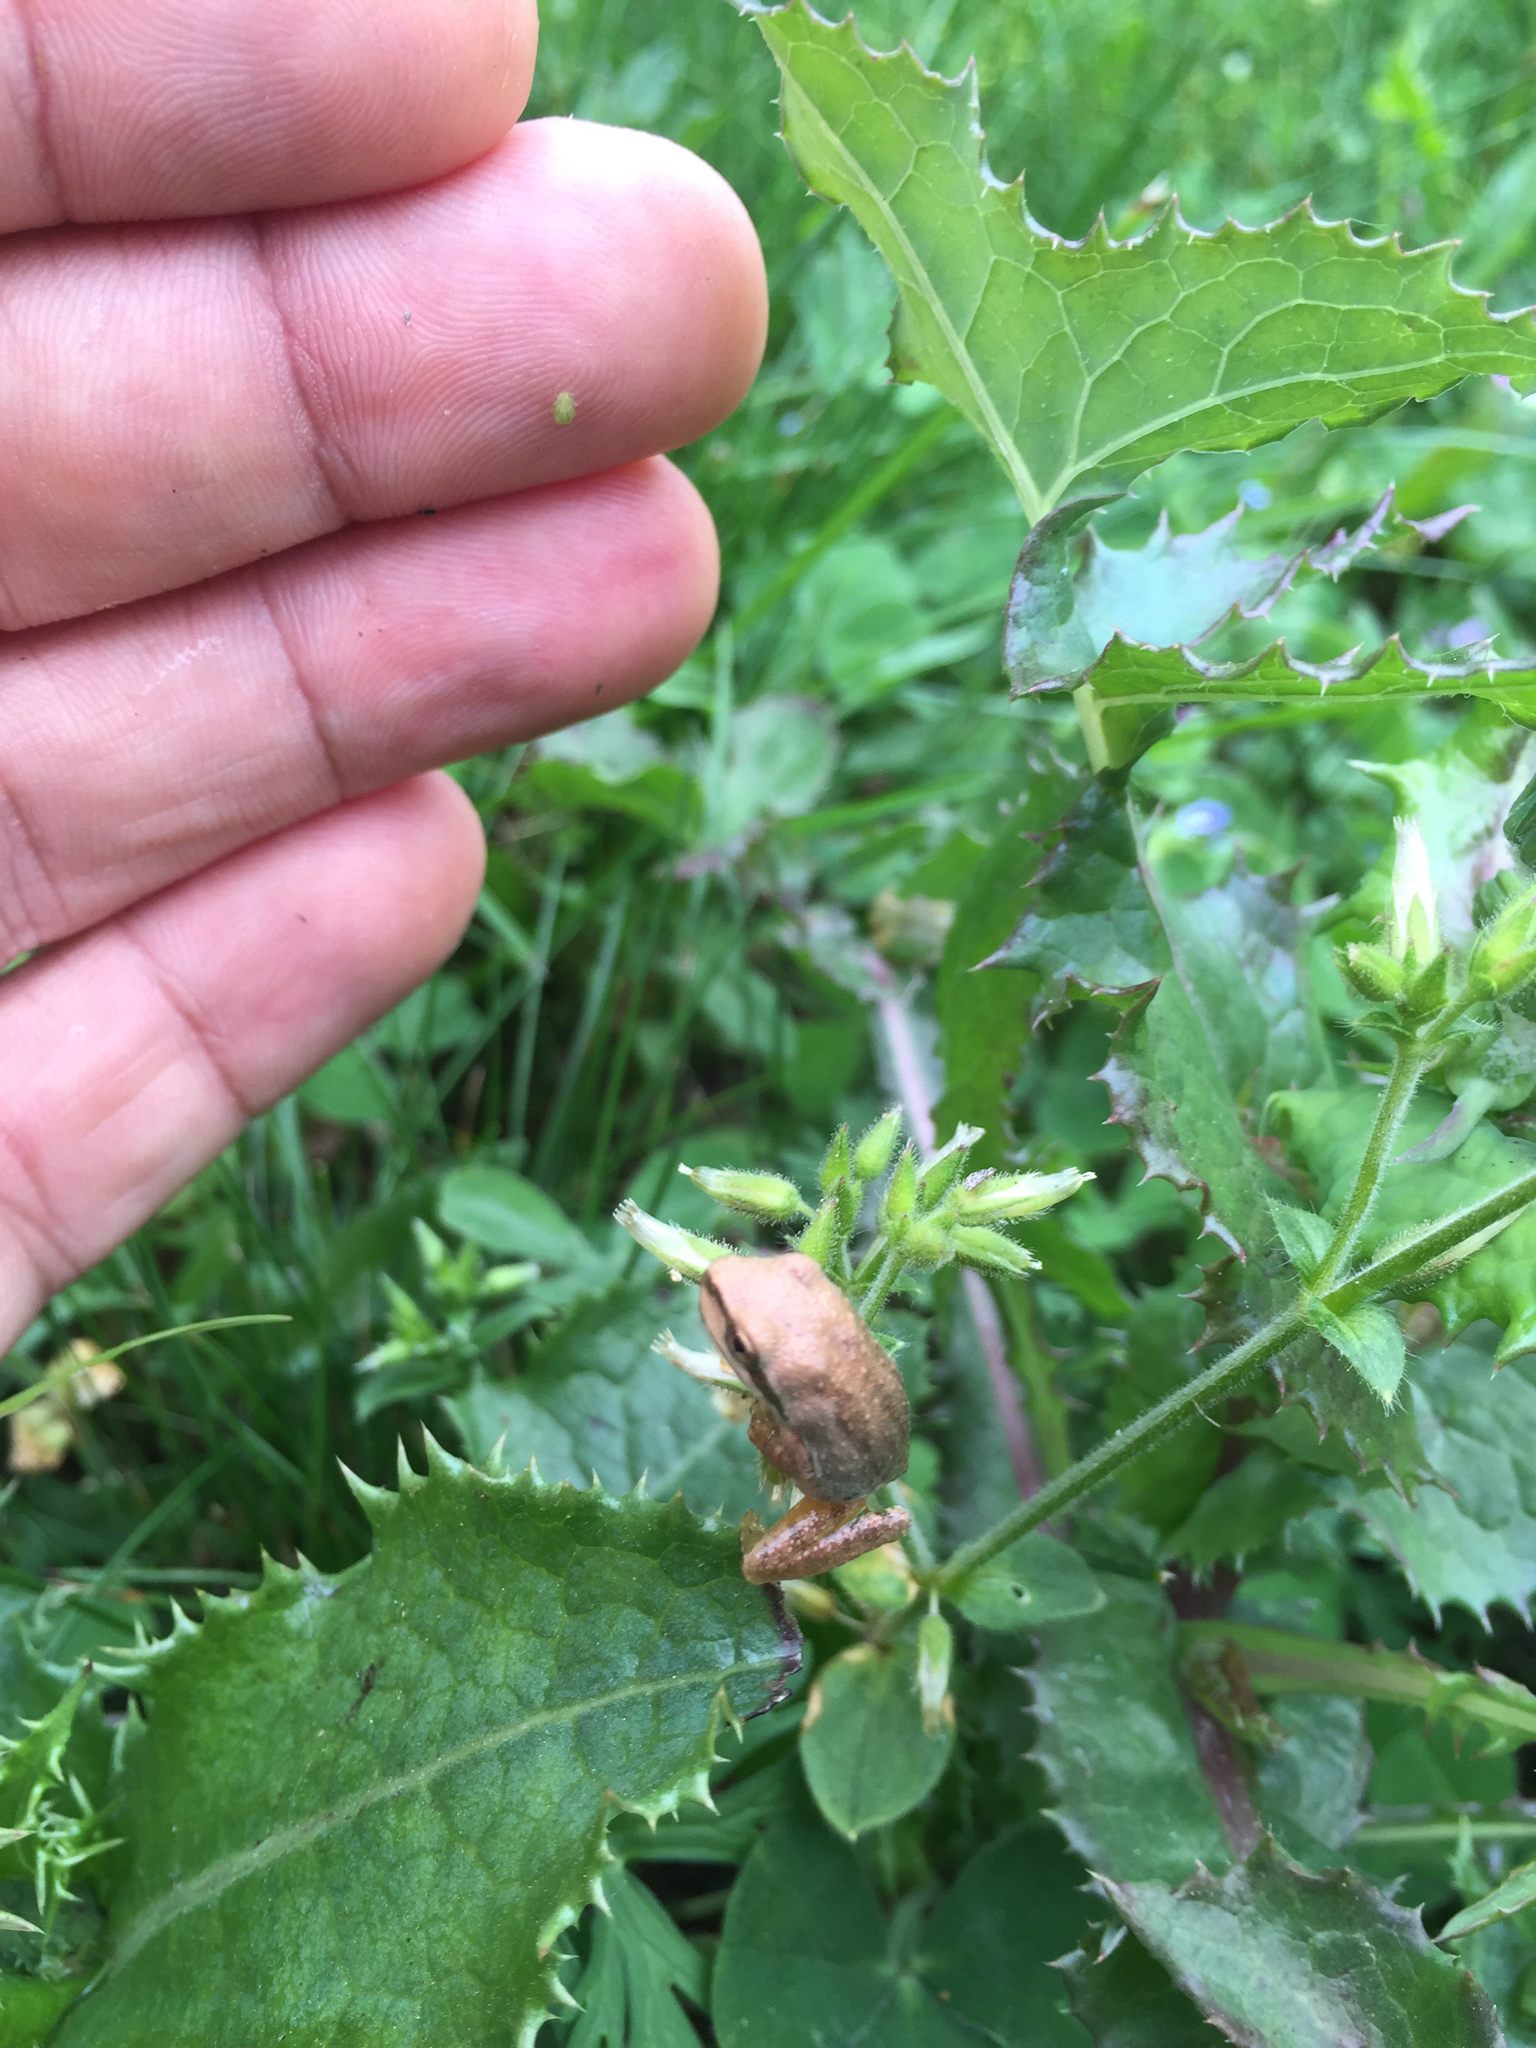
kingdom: Animalia
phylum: Chordata
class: Amphibia
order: Anura
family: Hylidae
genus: Pseudacris
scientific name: Pseudacris regilla
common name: Pacific chorus frog
